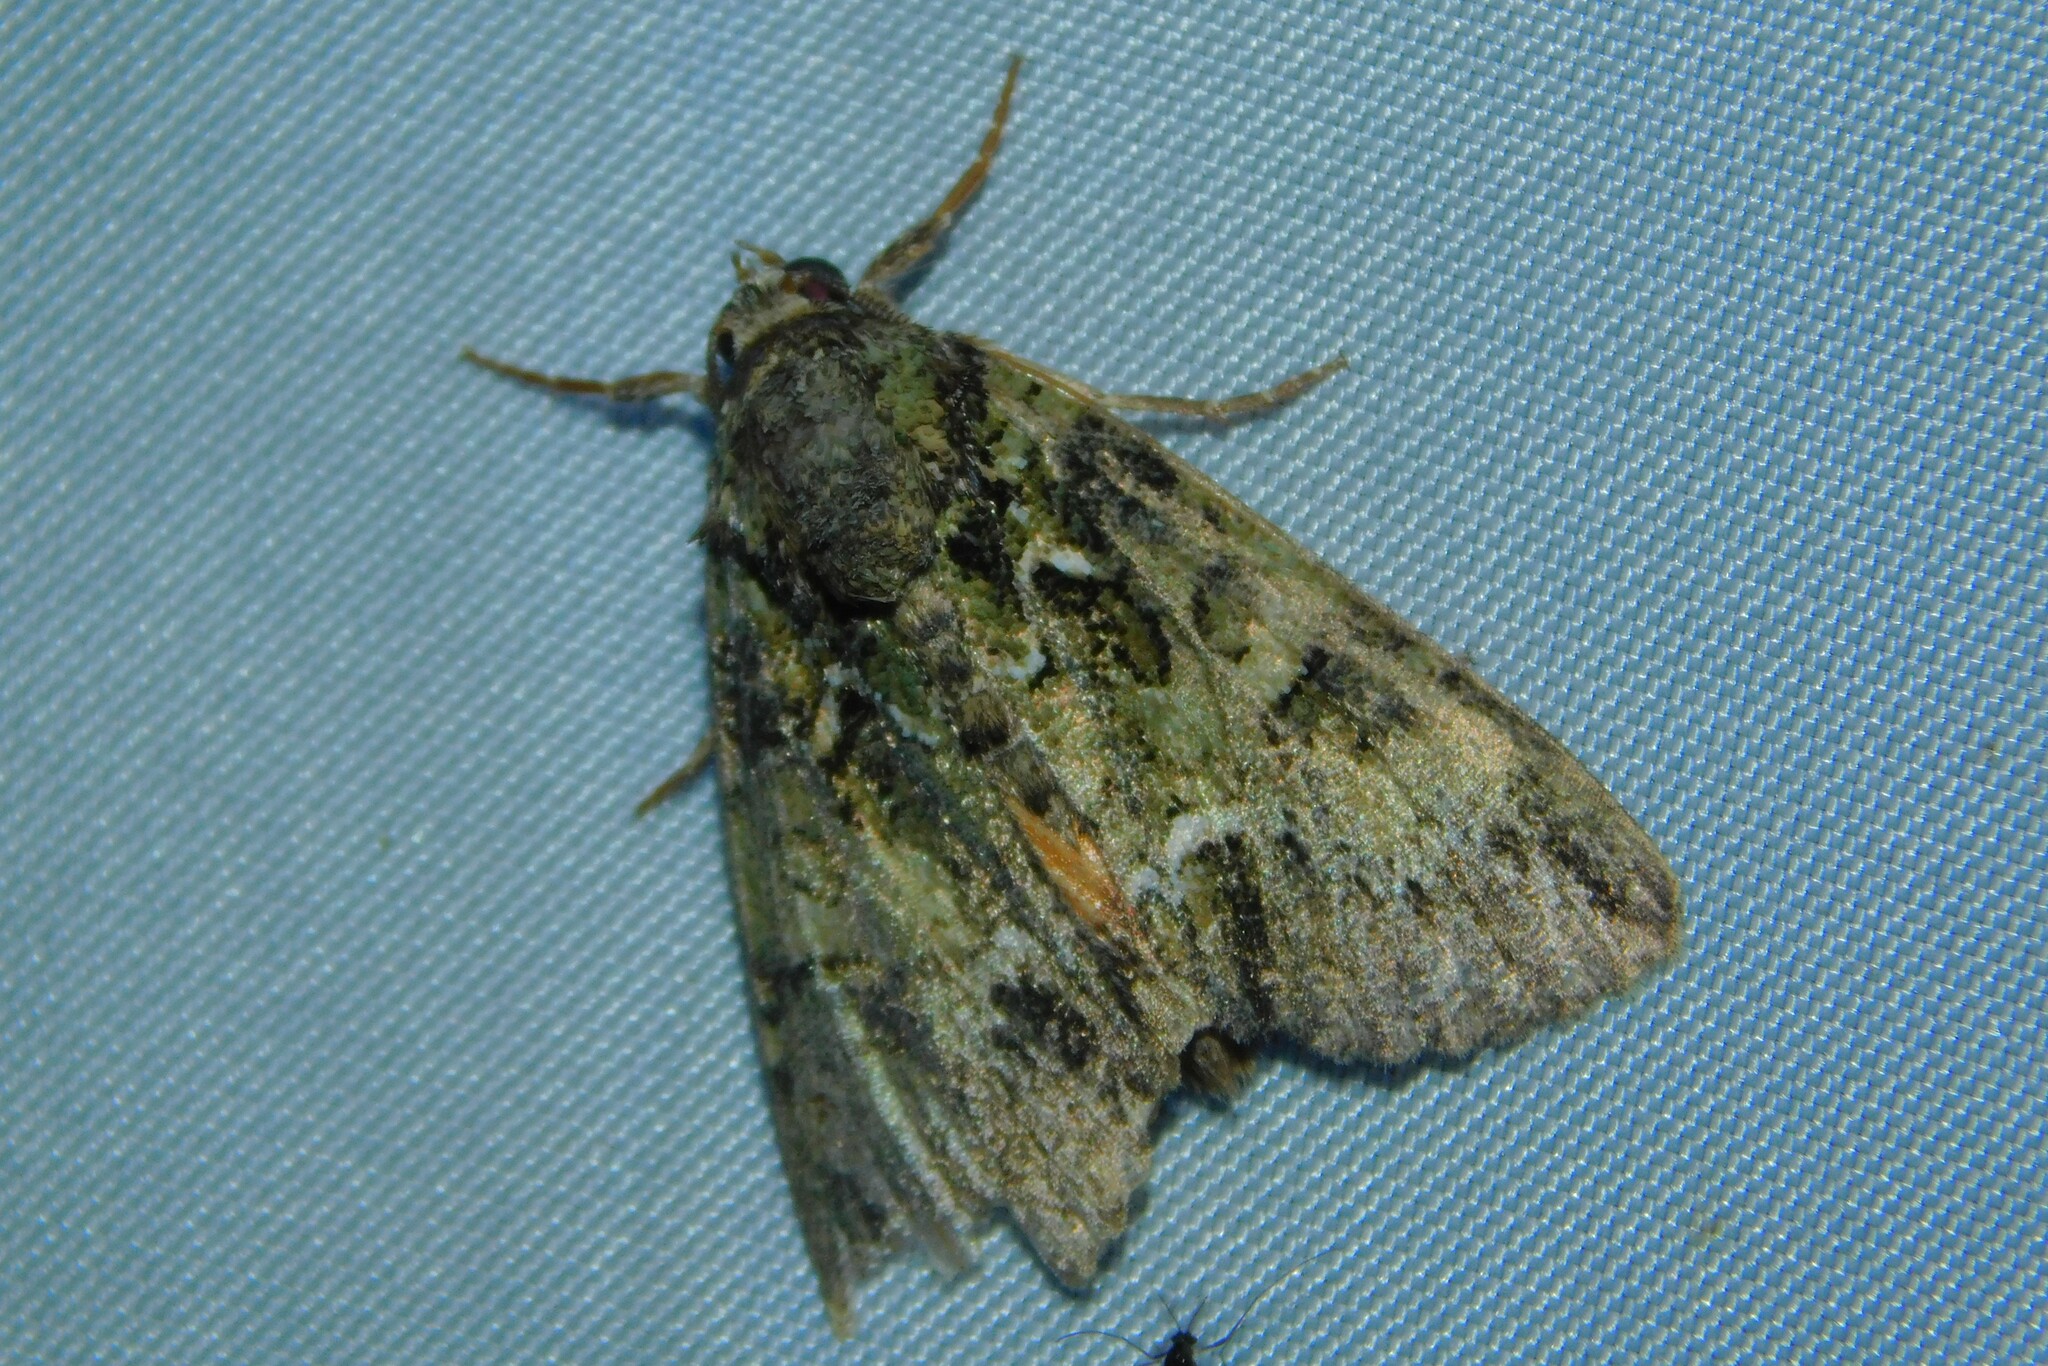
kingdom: Animalia
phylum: Arthropoda
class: Insecta
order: Lepidoptera
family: Noctuidae
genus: Polyphaenis
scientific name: Polyphaenis sericata
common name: Guernsey underwing
